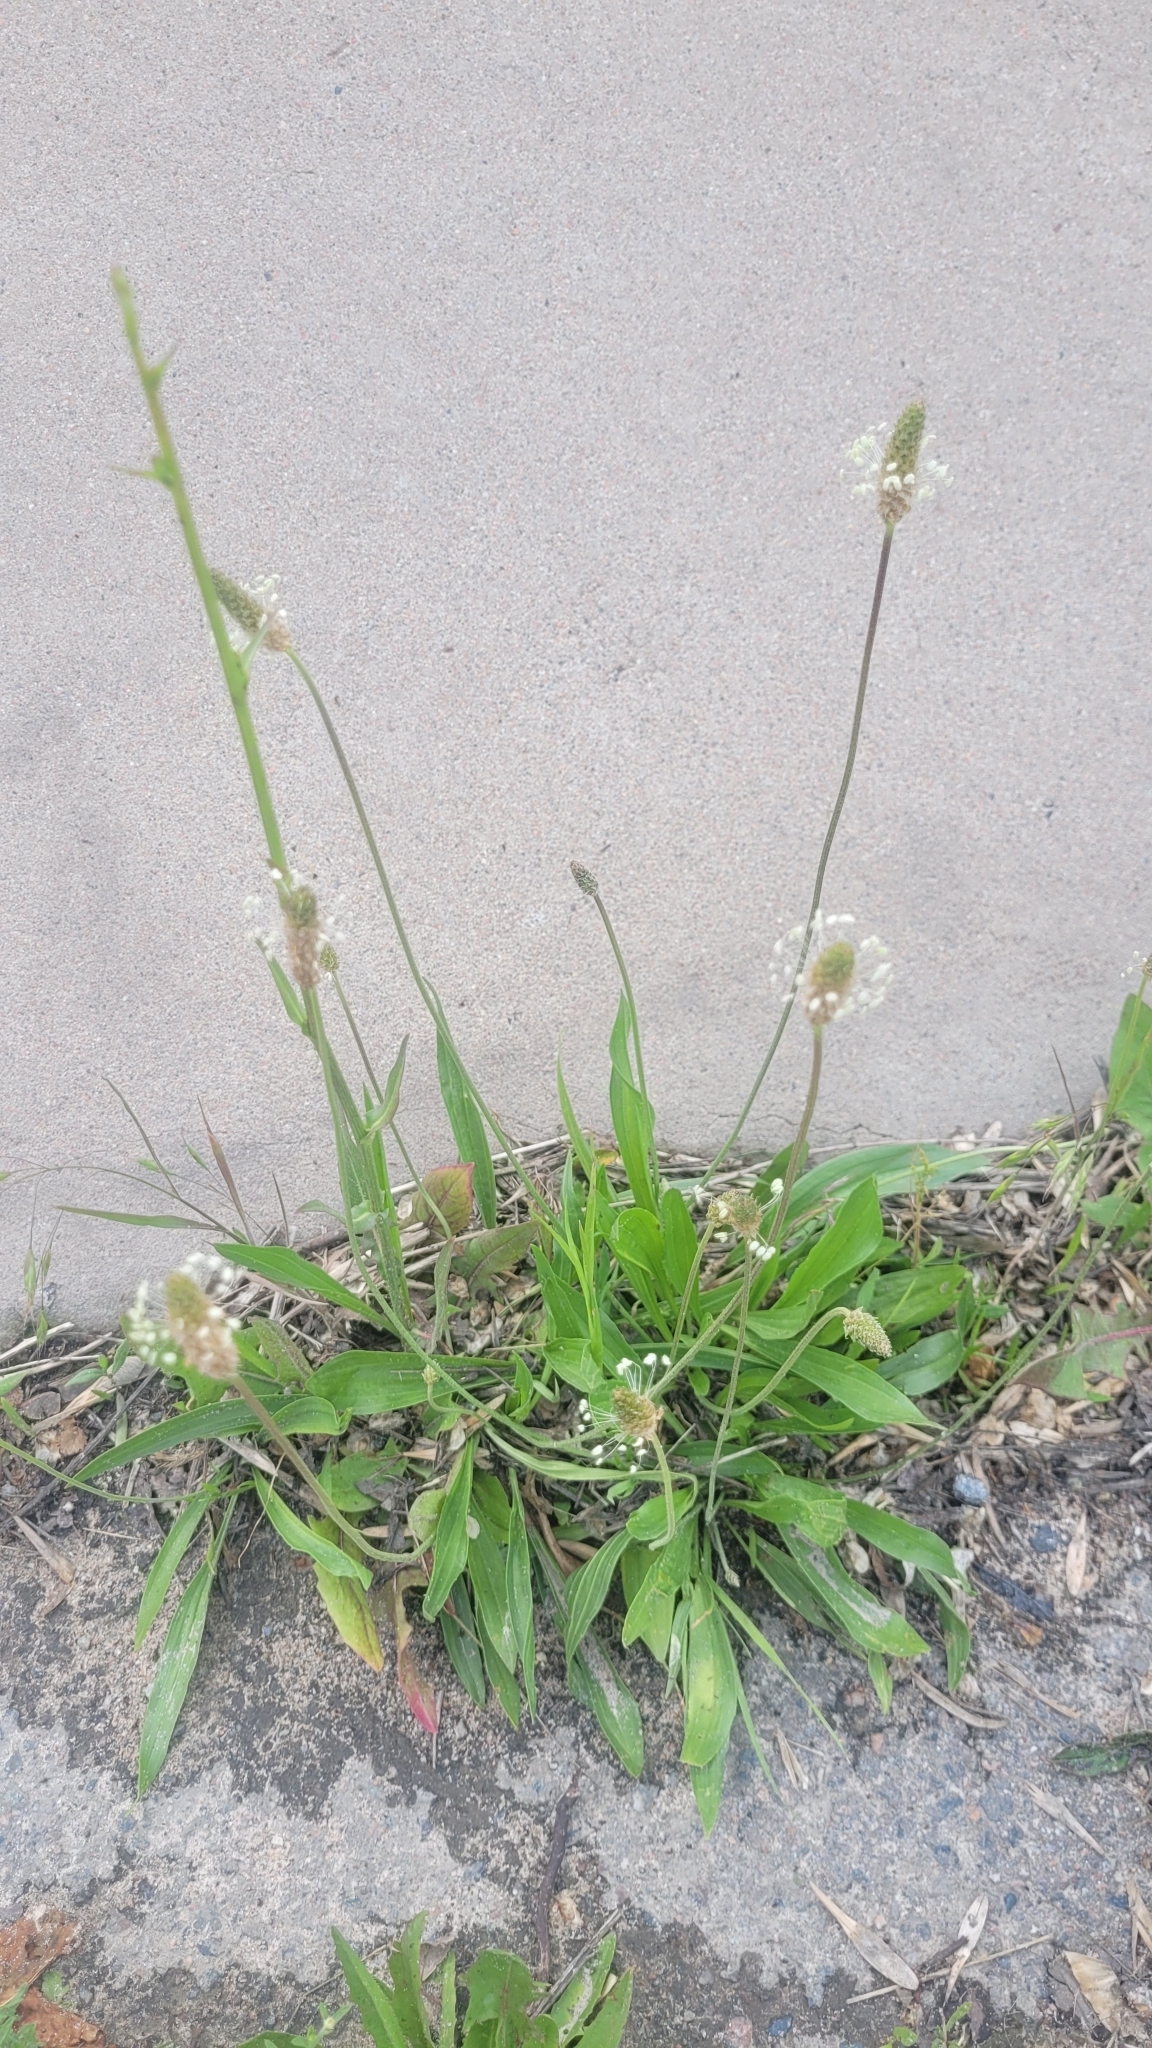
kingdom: Plantae
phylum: Tracheophyta
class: Magnoliopsida
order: Lamiales
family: Plantaginaceae
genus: Plantago
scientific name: Plantago lanceolata
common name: Ribwort plantain
